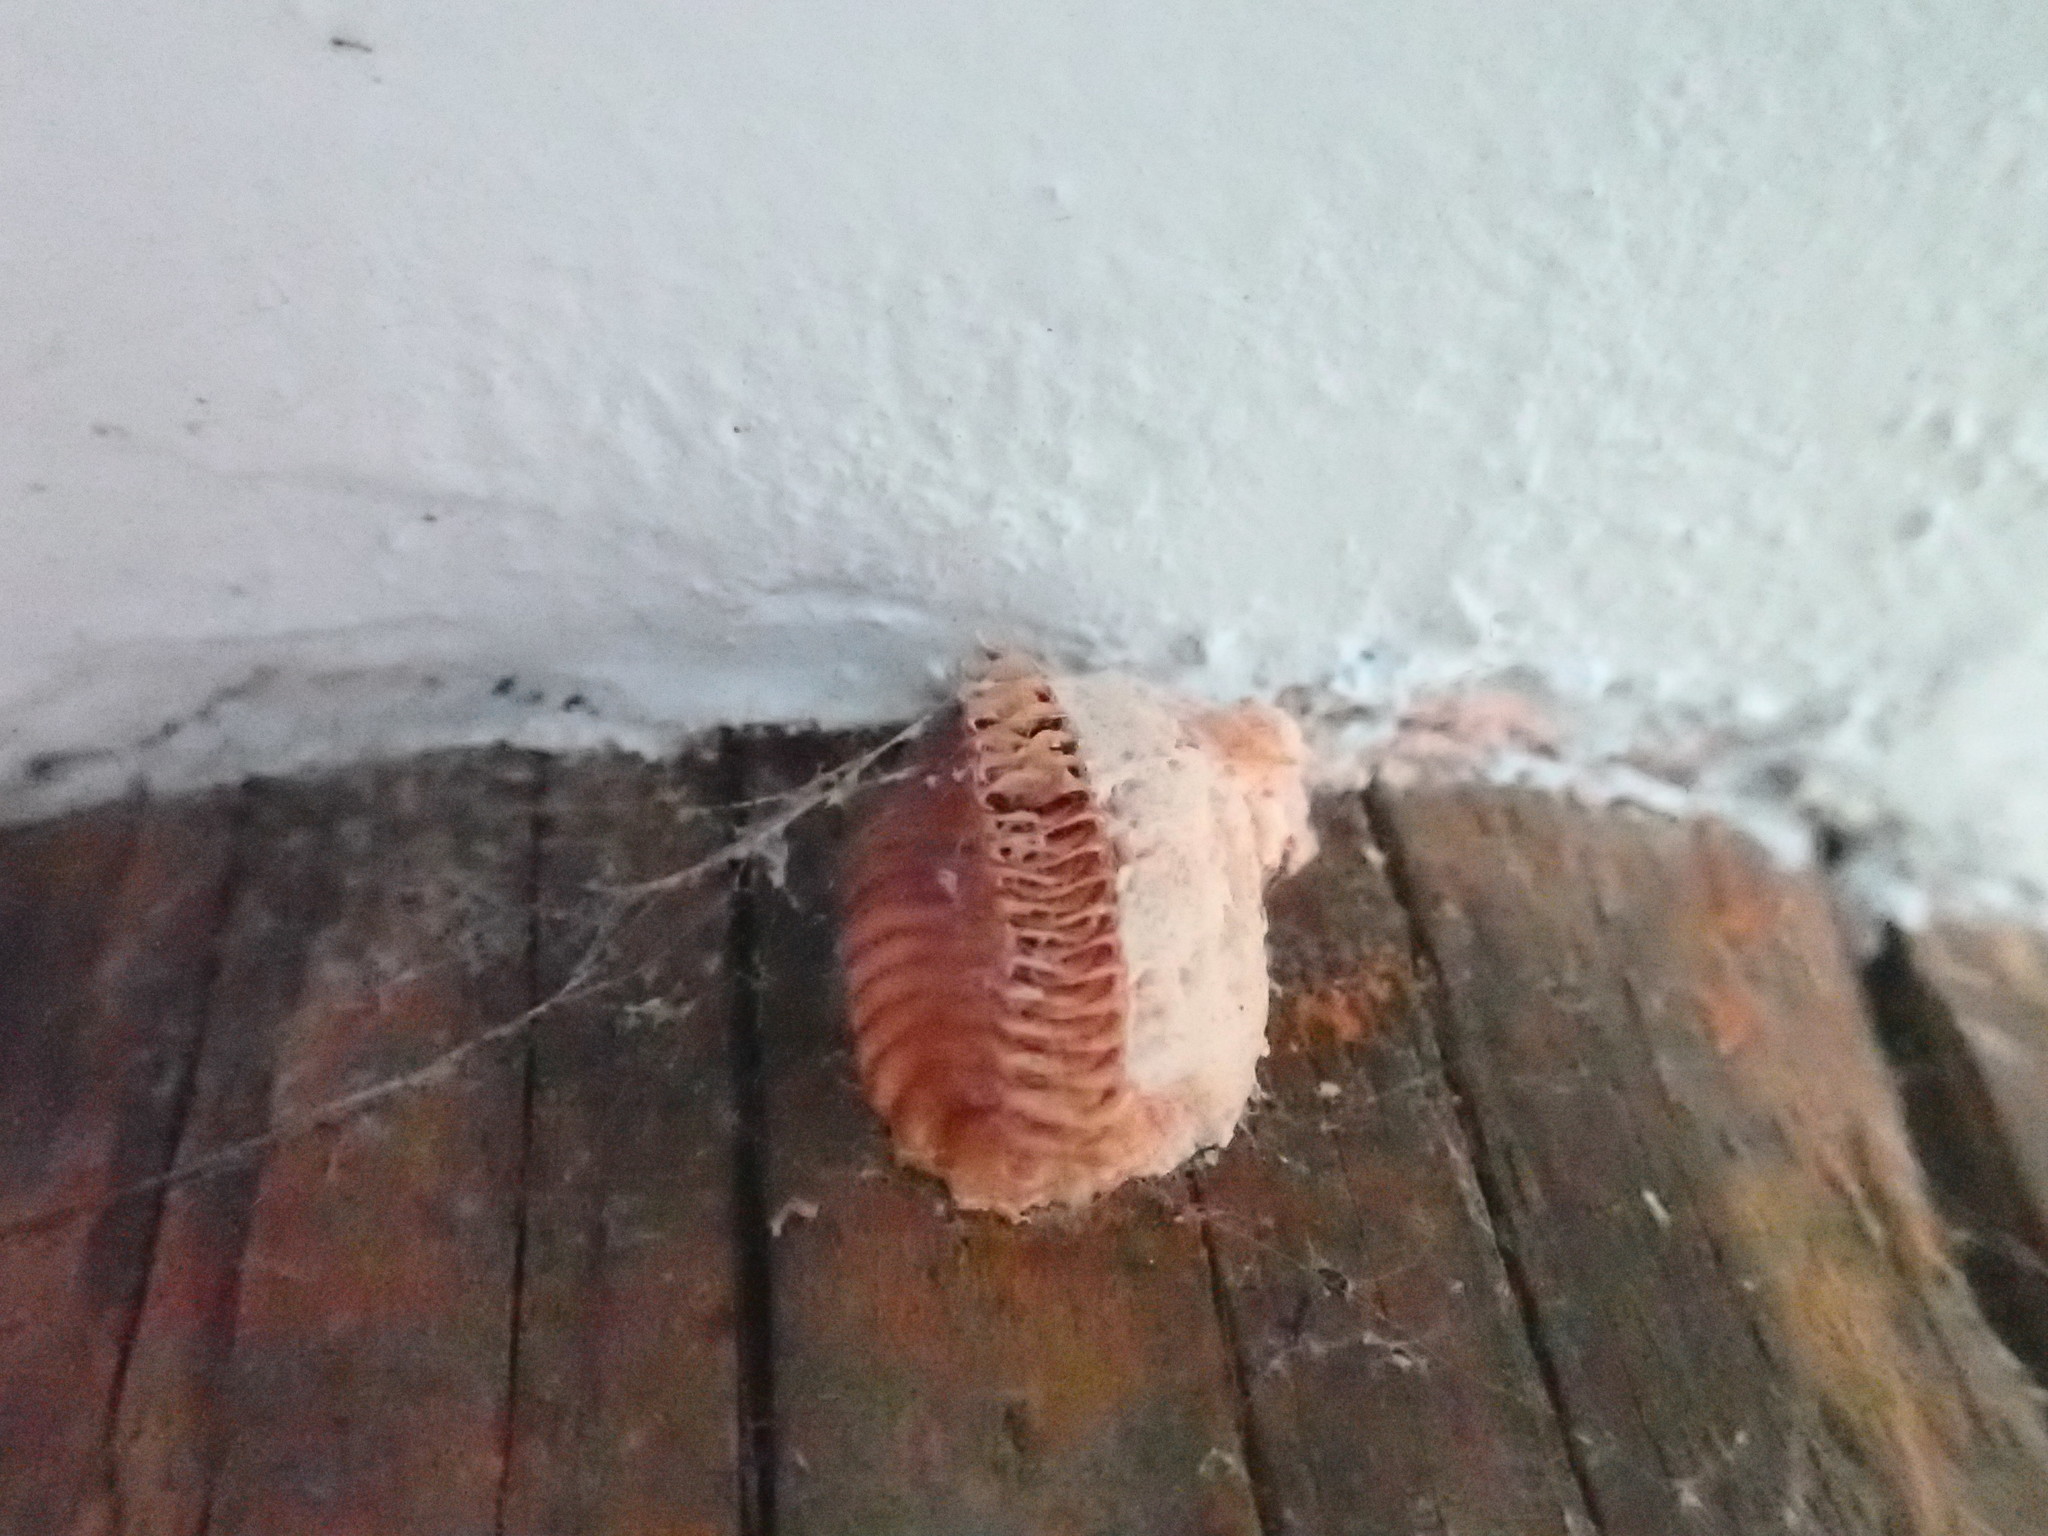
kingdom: Animalia
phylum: Arthropoda
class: Insecta
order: Mantodea
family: Miomantidae
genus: Miomantis
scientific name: Miomantis caffra
